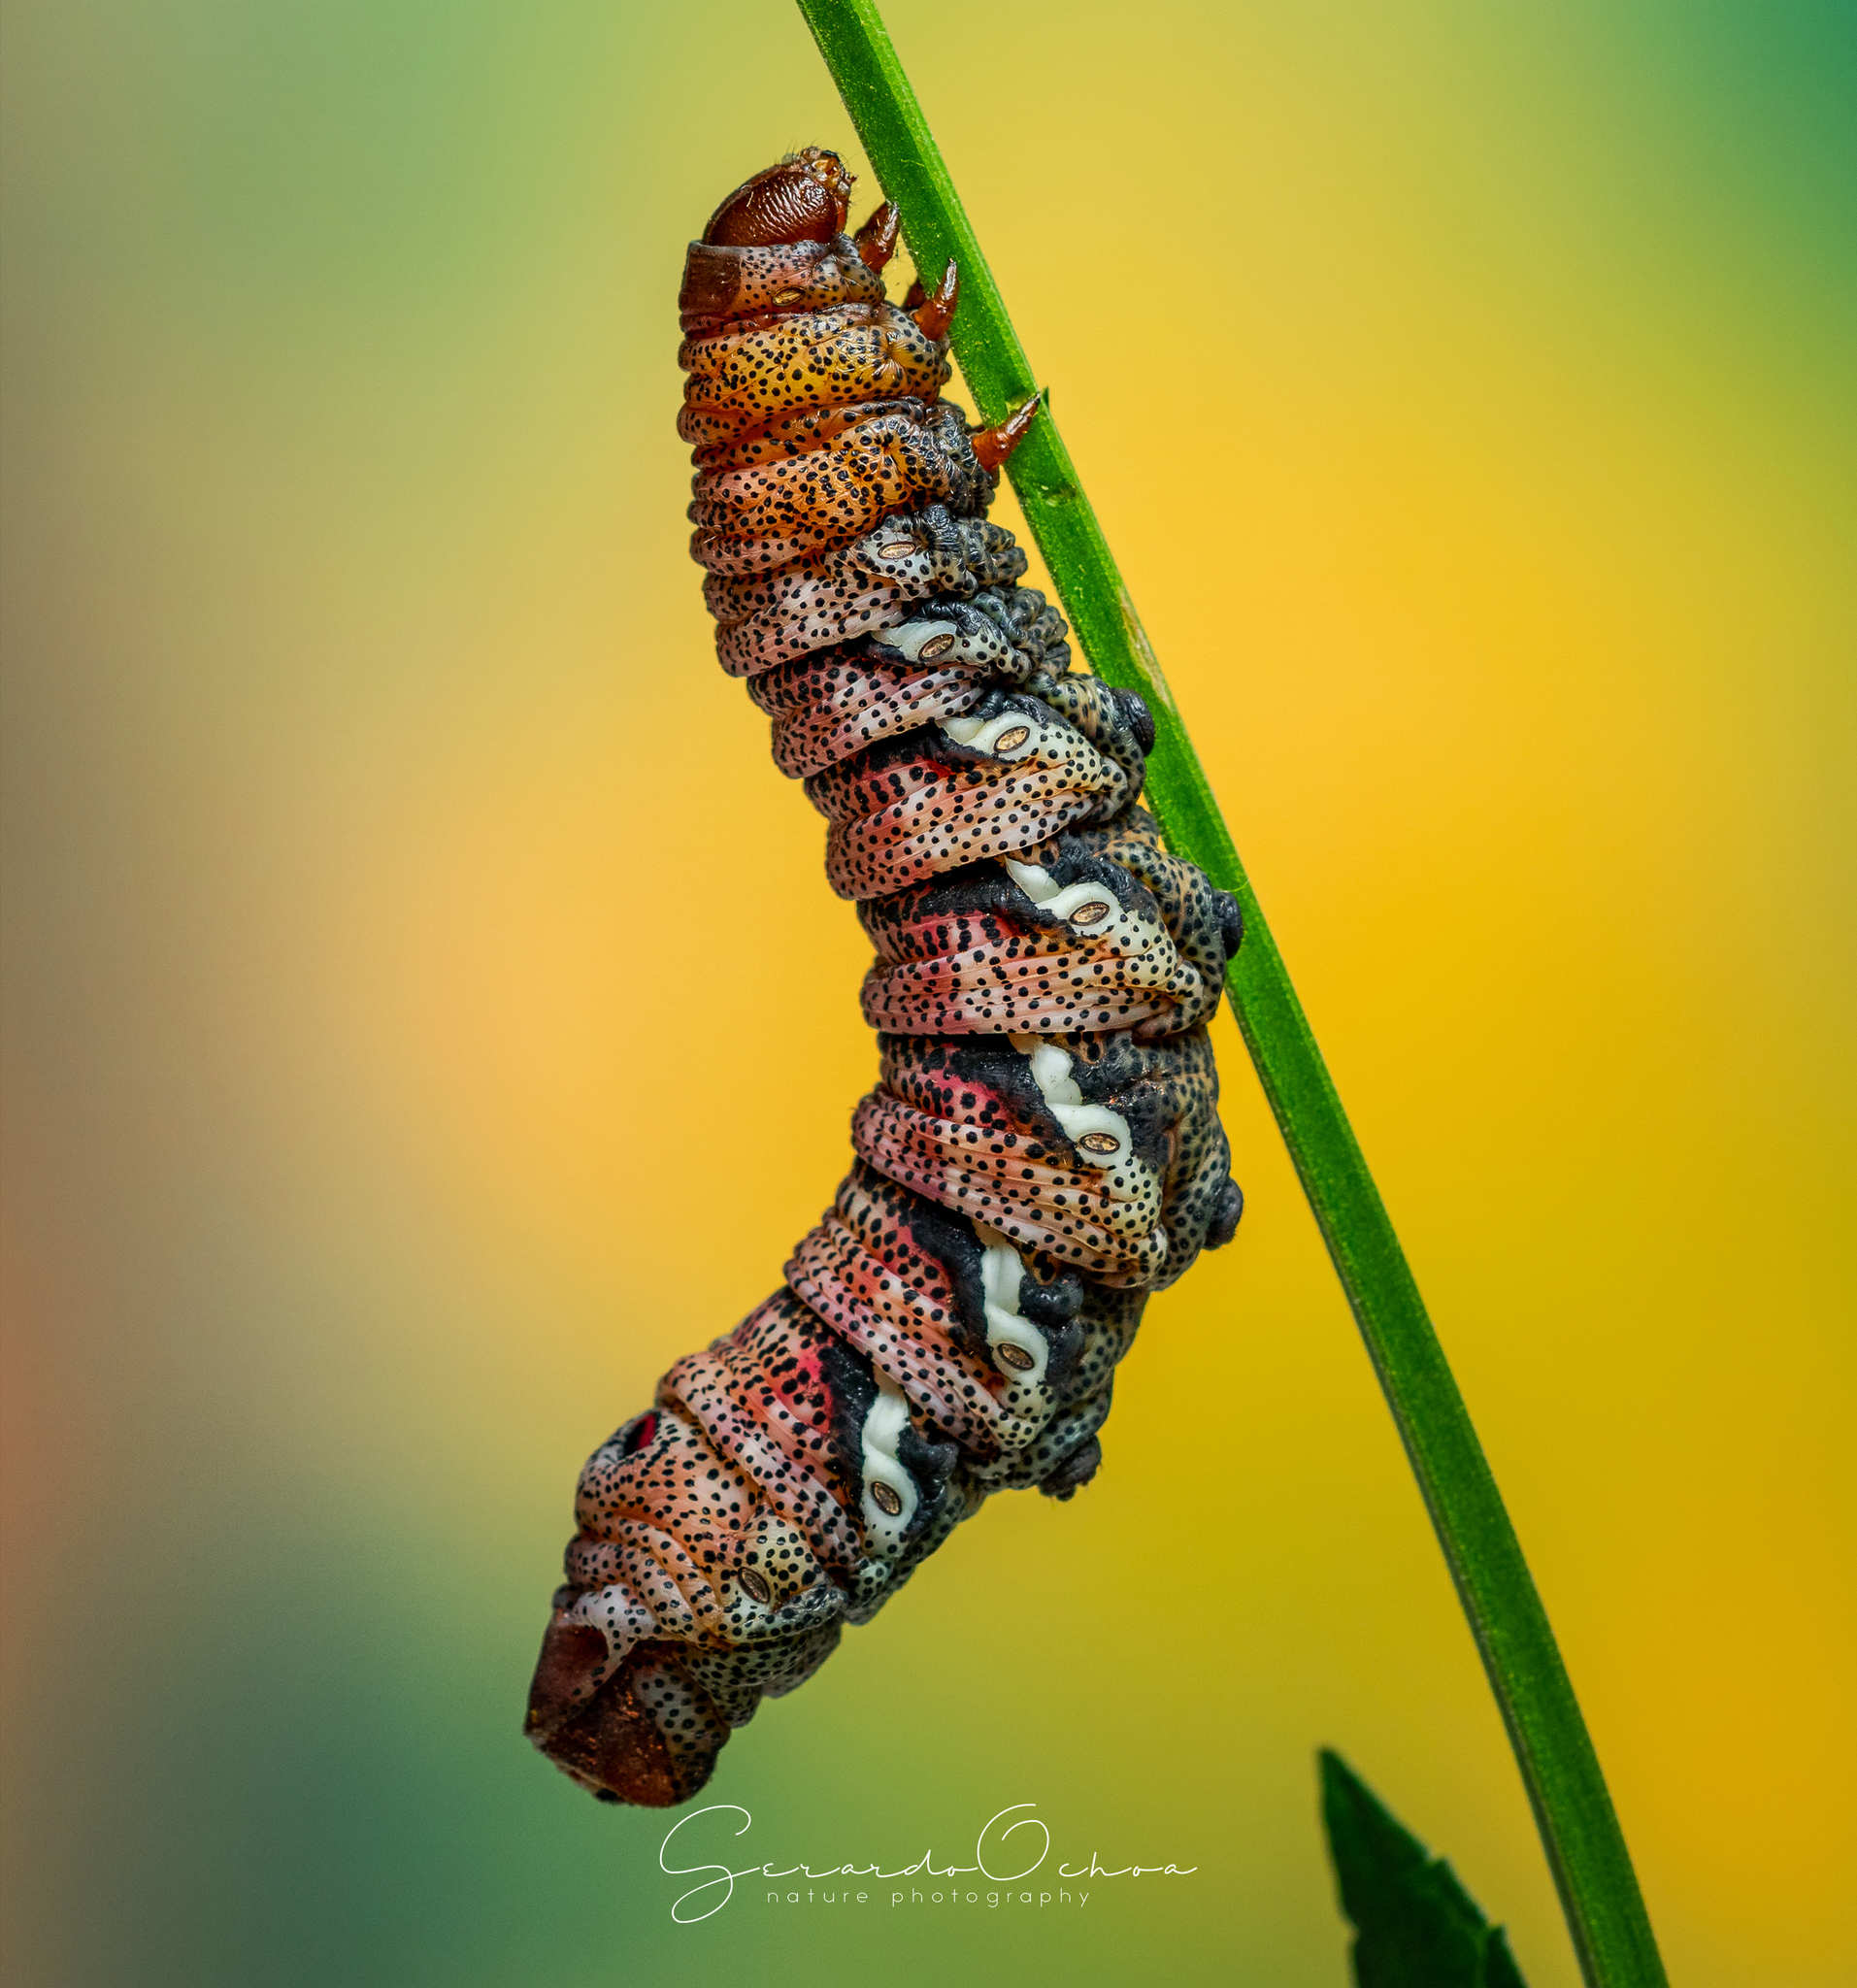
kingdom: Animalia
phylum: Arthropoda
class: Insecta
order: Lepidoptera
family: Sphingidae
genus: Eumorpha
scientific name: Eumorpha typhon
